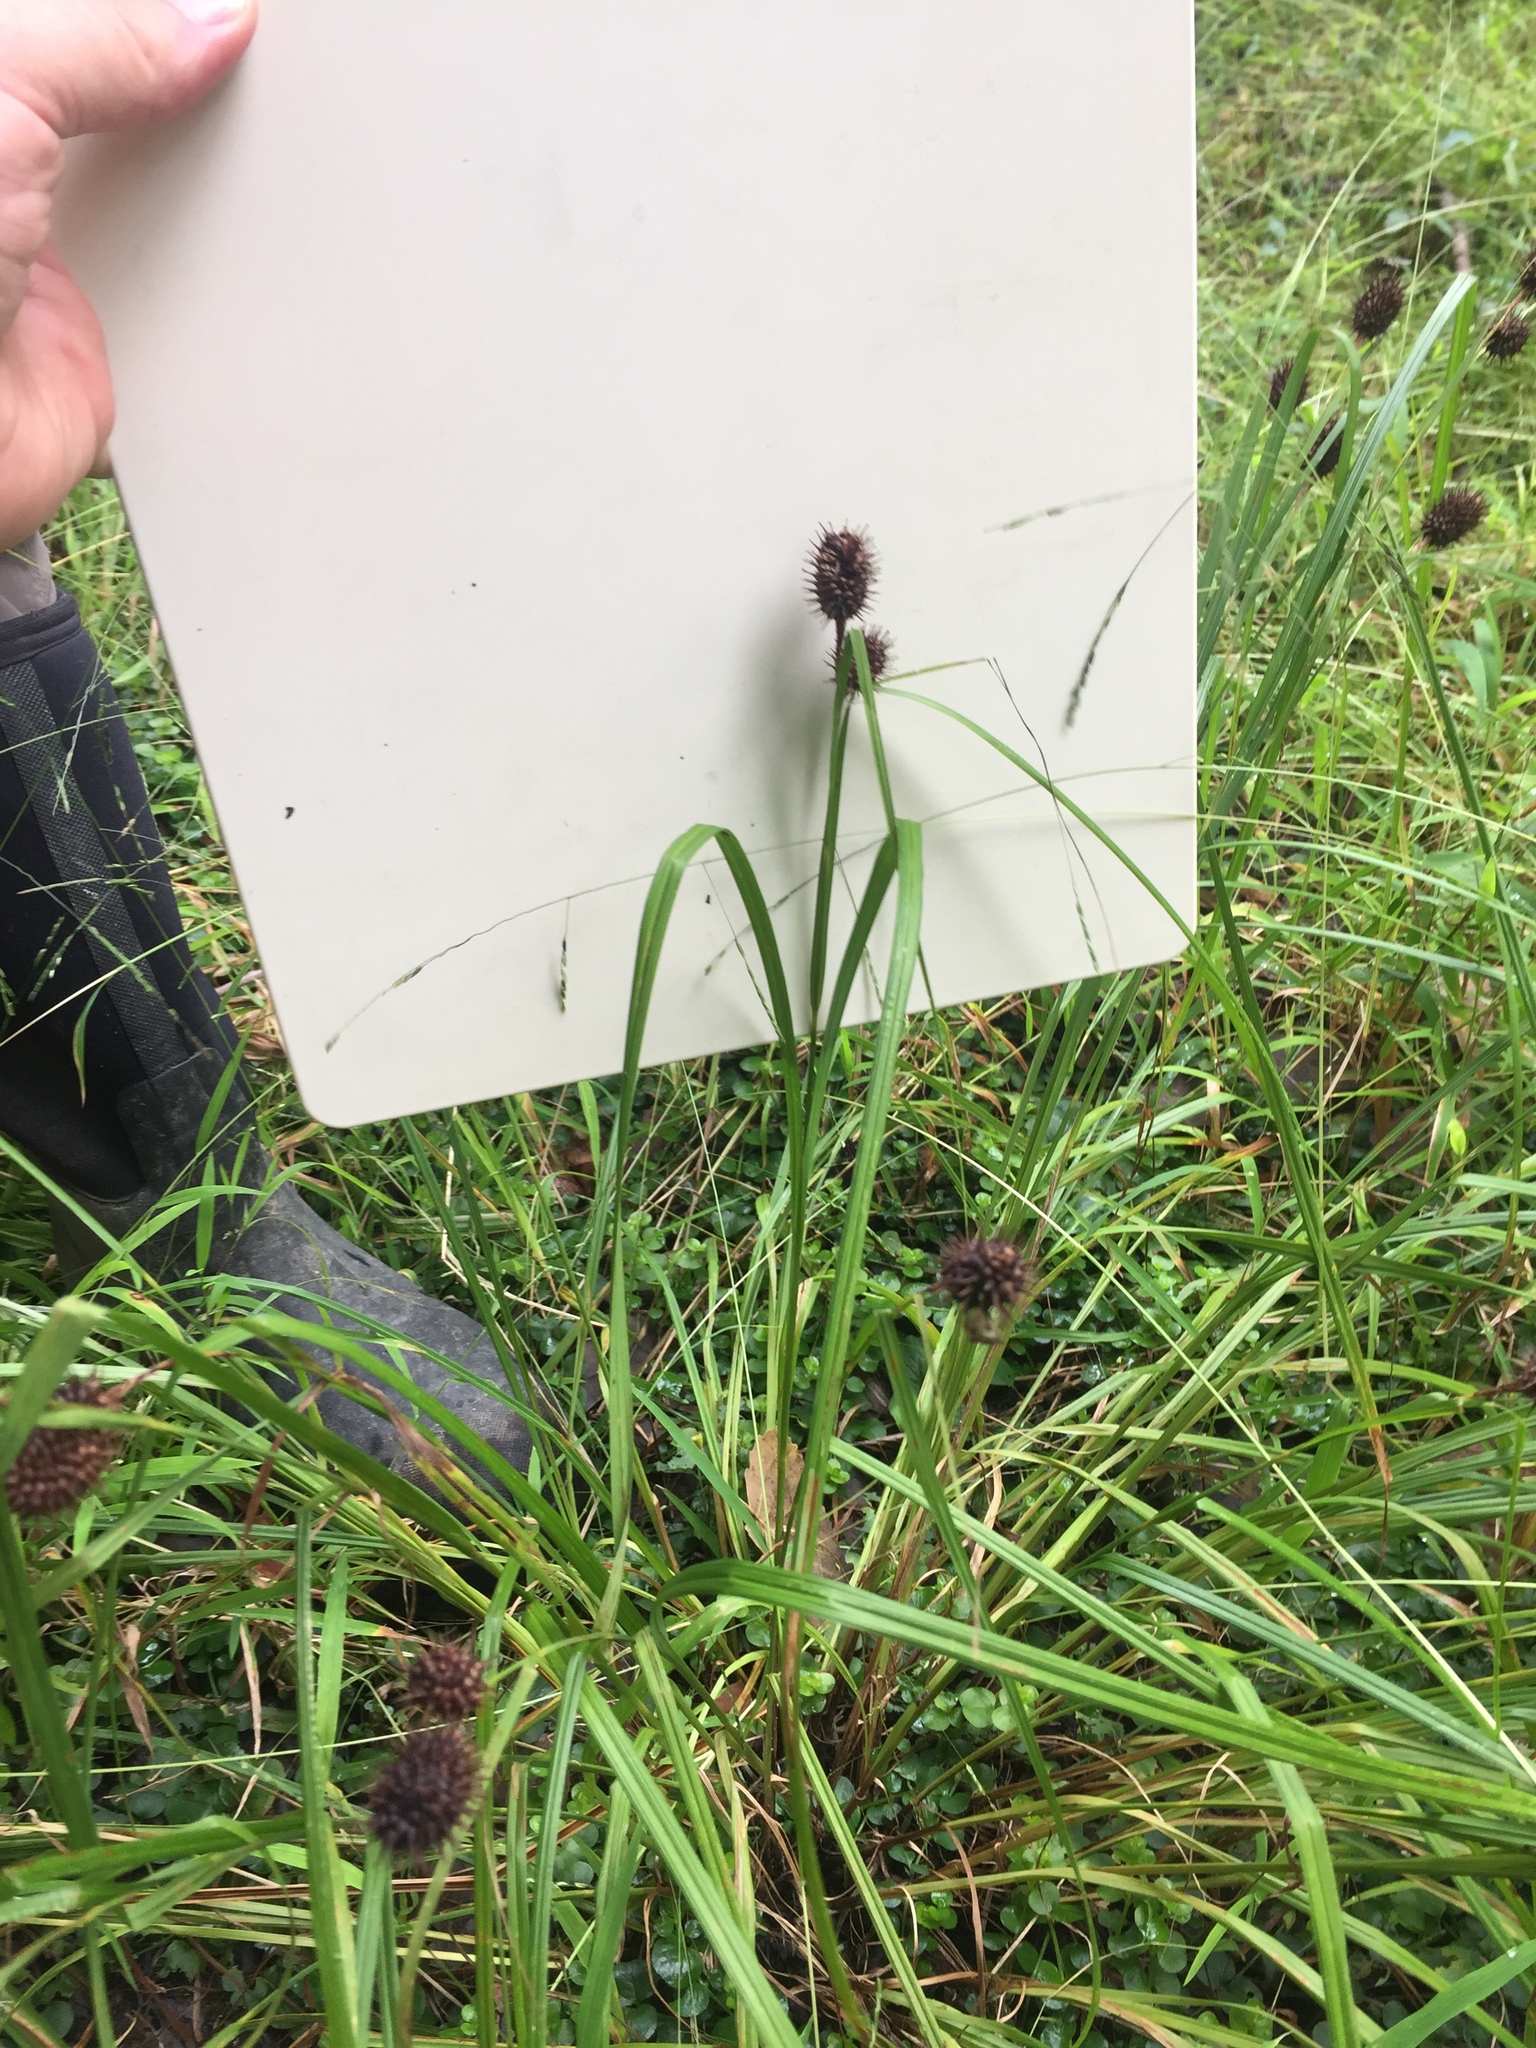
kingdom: Plantae
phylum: Tracheophyta
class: Liliopsida
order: Poales
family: Cyperaceae
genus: Carex
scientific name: Carex squarrosa
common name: Narrow-leaved cattail sedge
